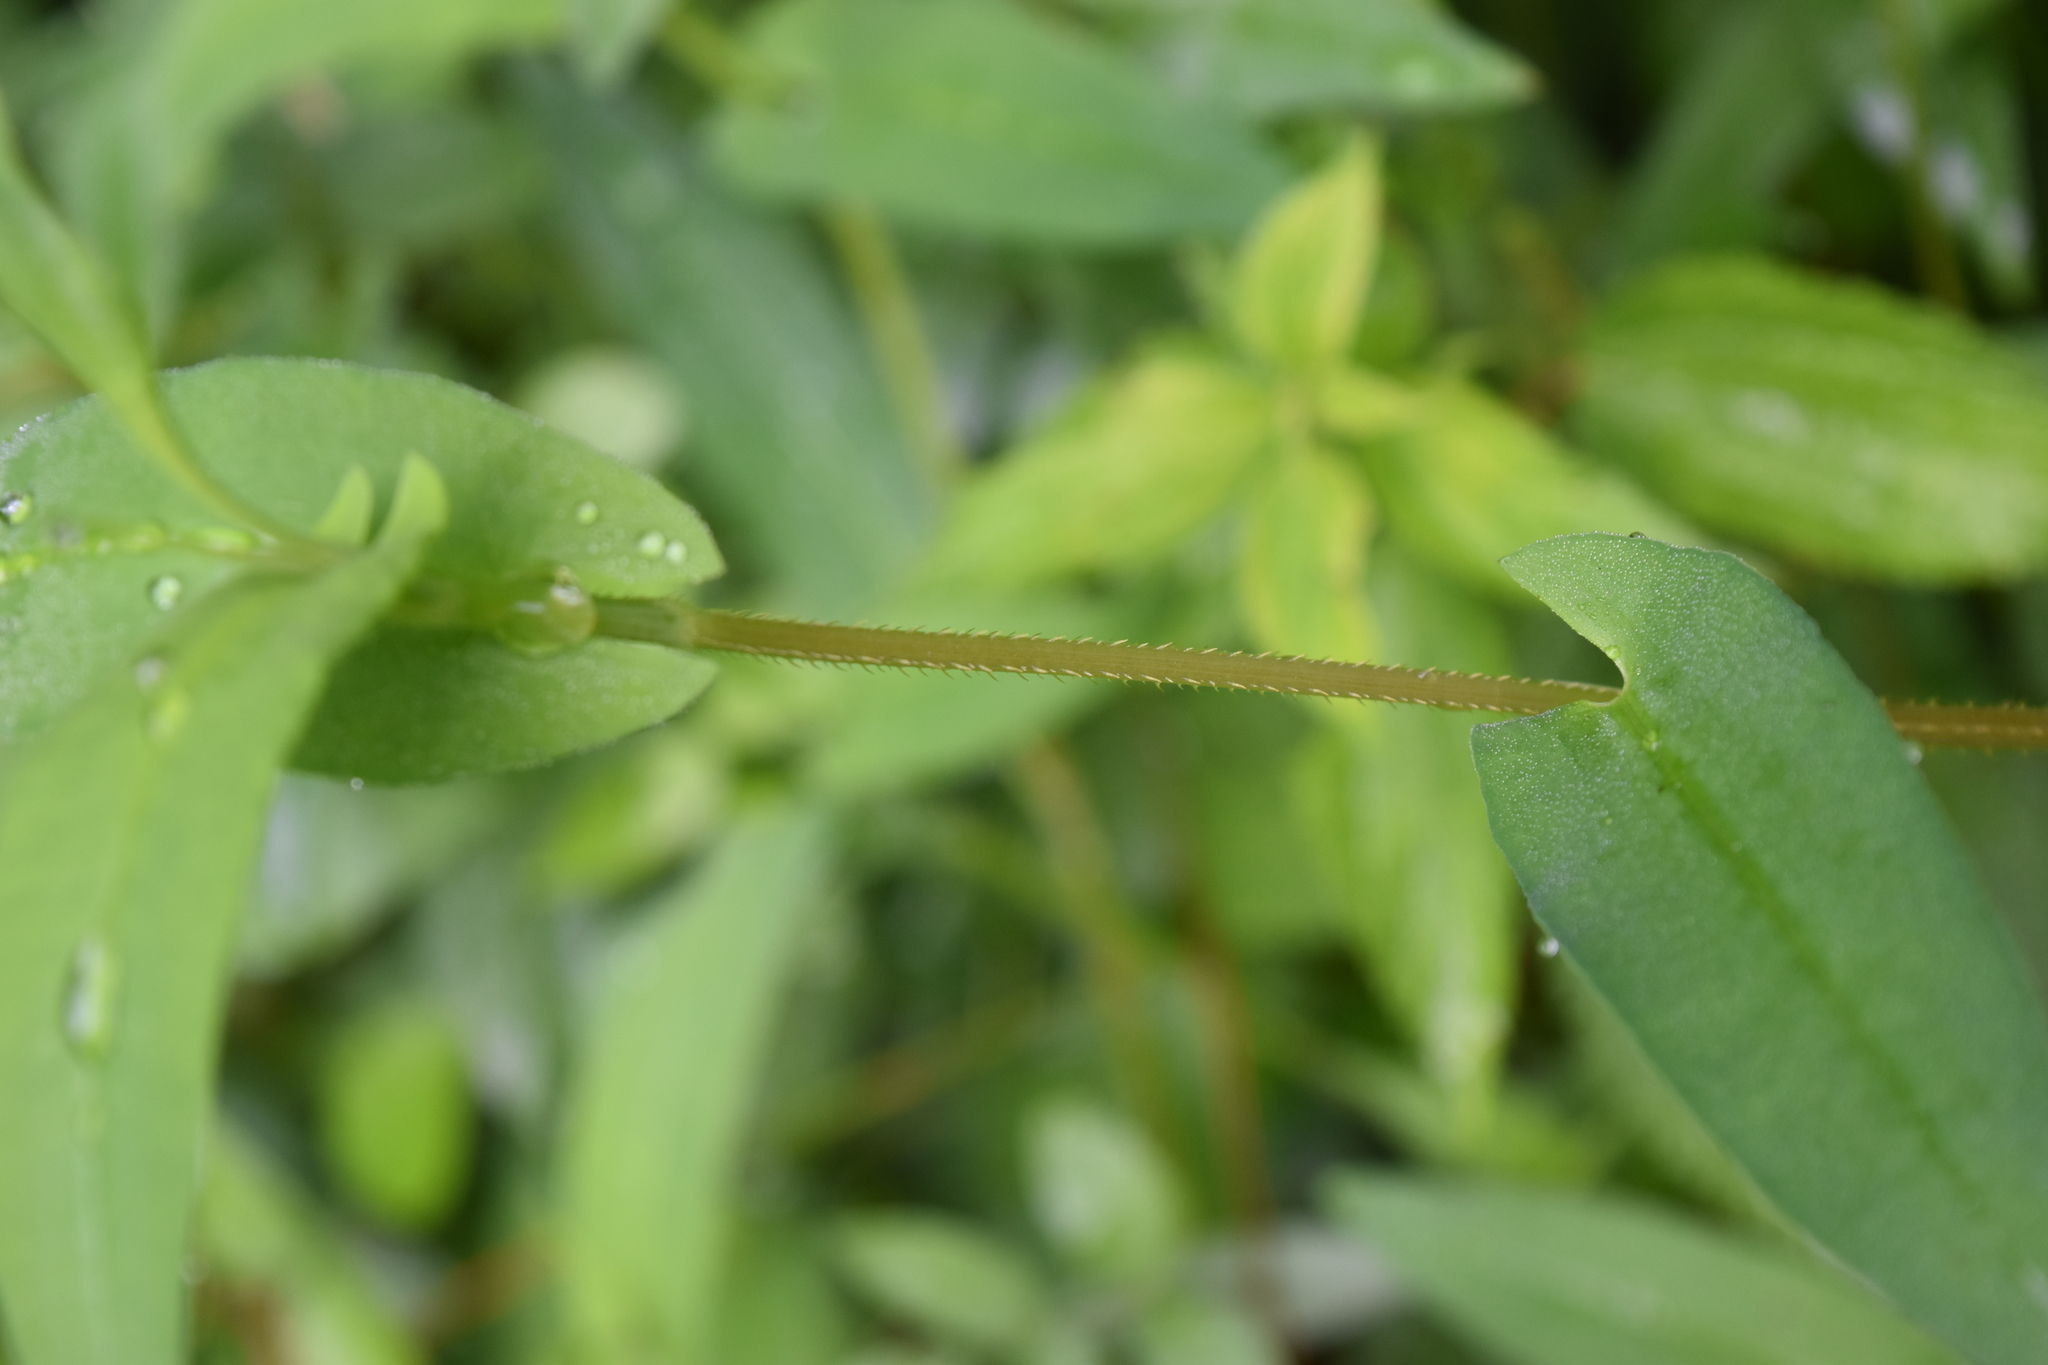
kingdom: Plantae
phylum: Tracheophyta
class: Magnoliopsida
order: Caryophyllales
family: Polygonaceae
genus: Persicaria
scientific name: Persicaria sagittata
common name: American tearthumb
